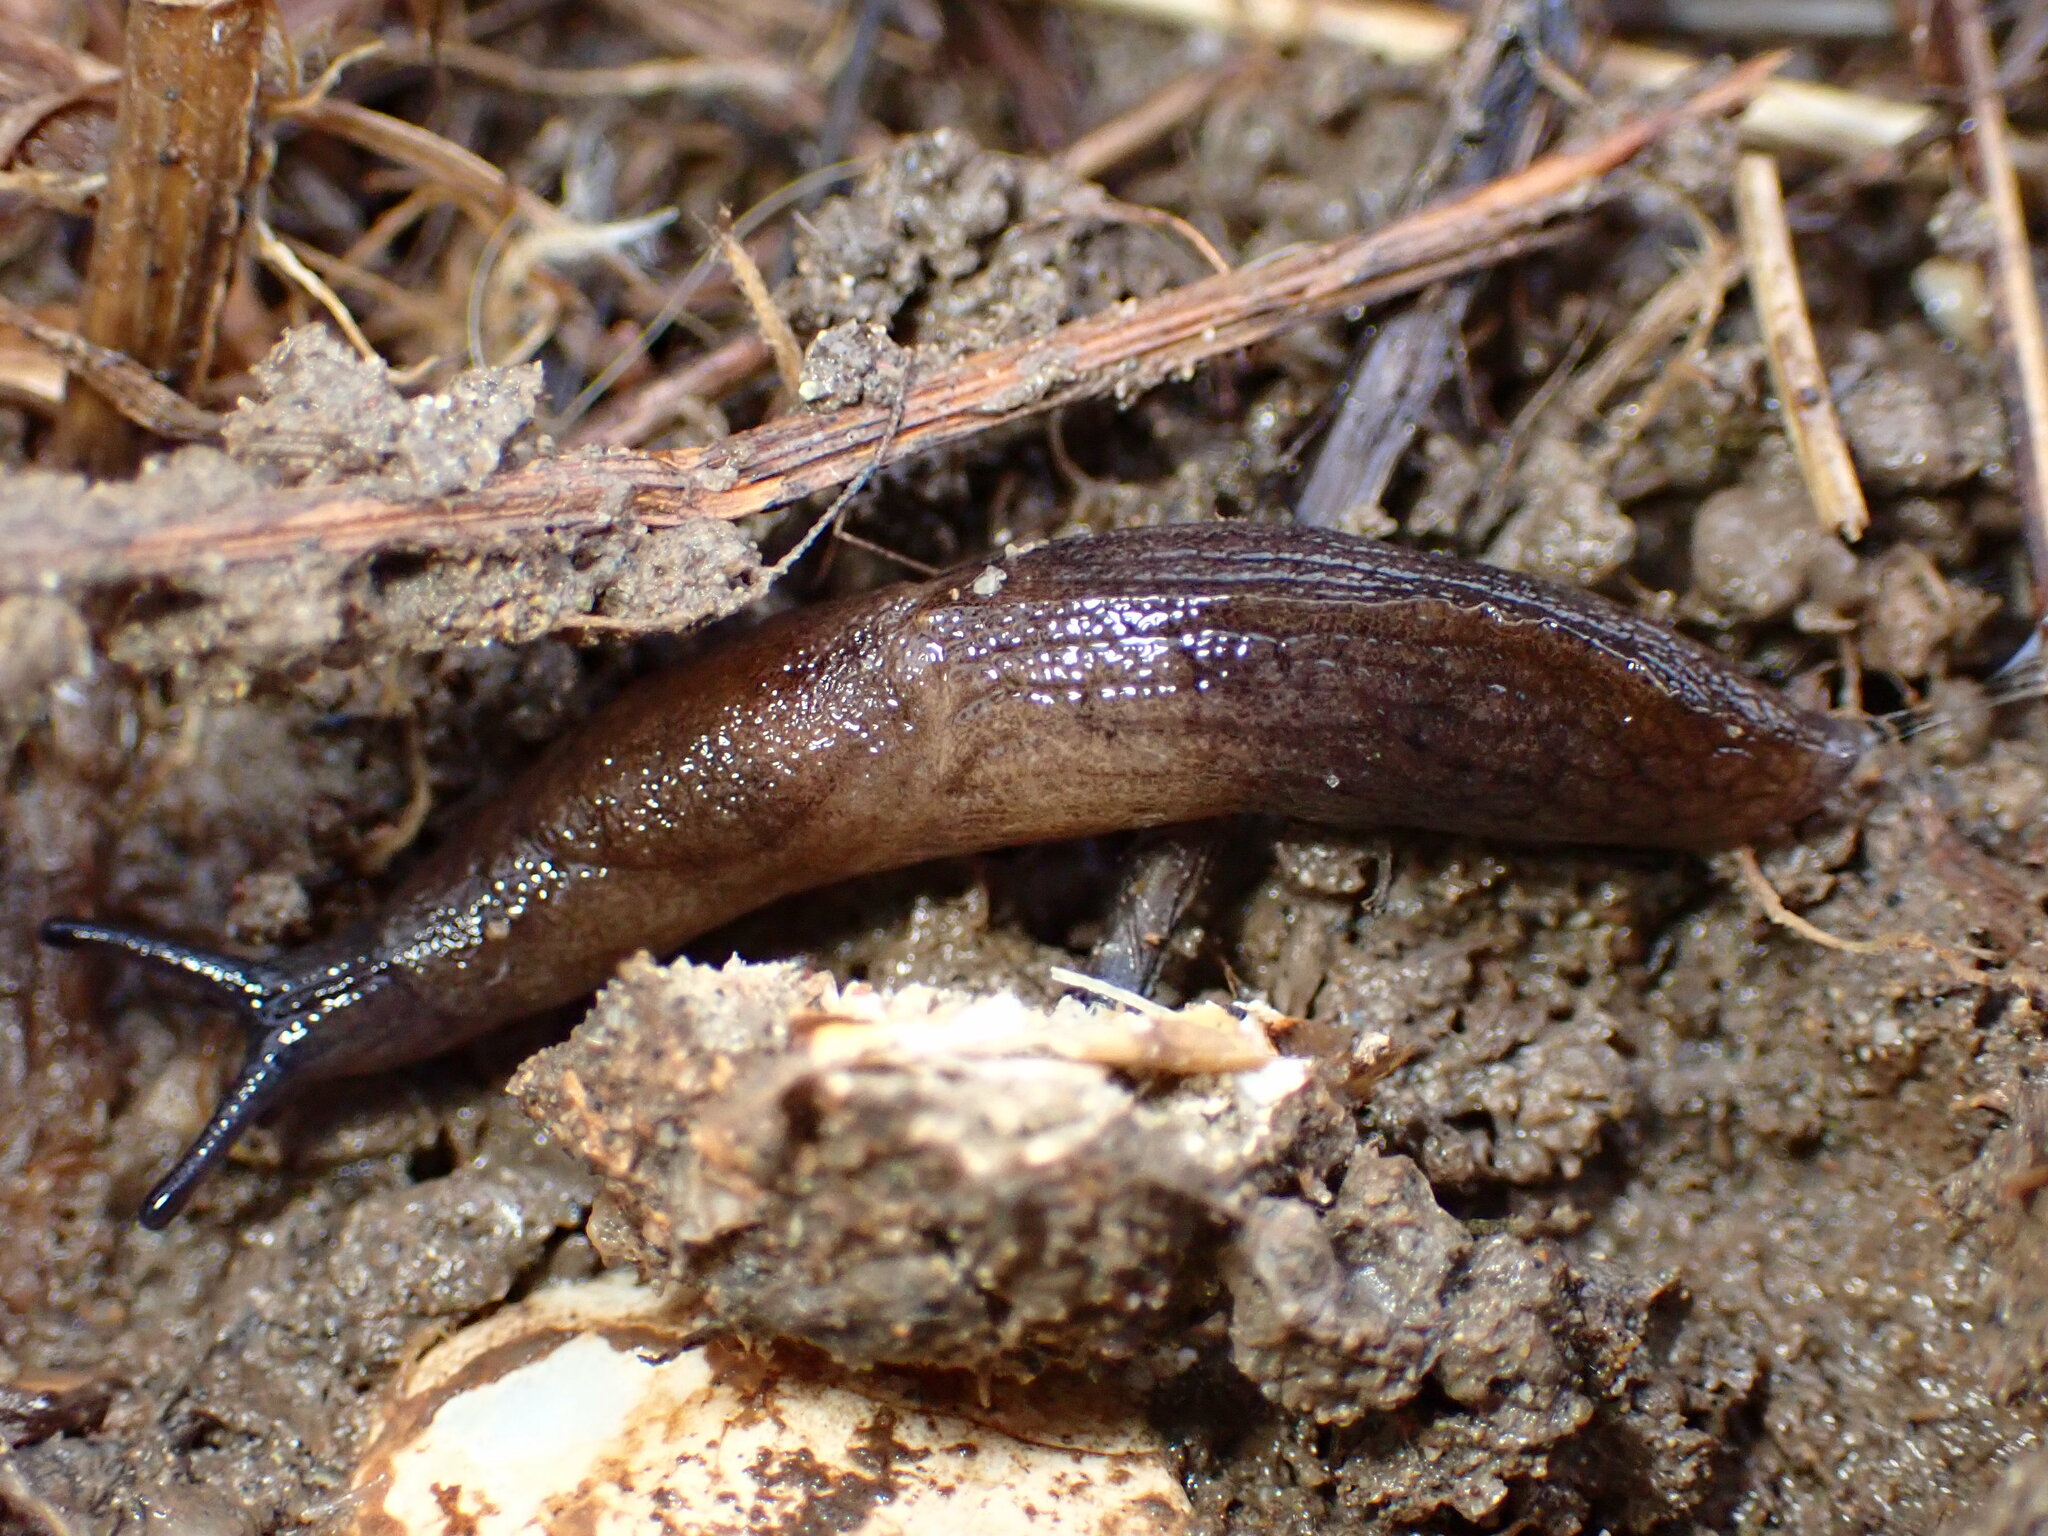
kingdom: Animalia
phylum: Mollusca
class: Gastropoda
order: Stylommatophora
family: Milacidae
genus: Milax
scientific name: Milax gagates
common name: Greenhouse slug
